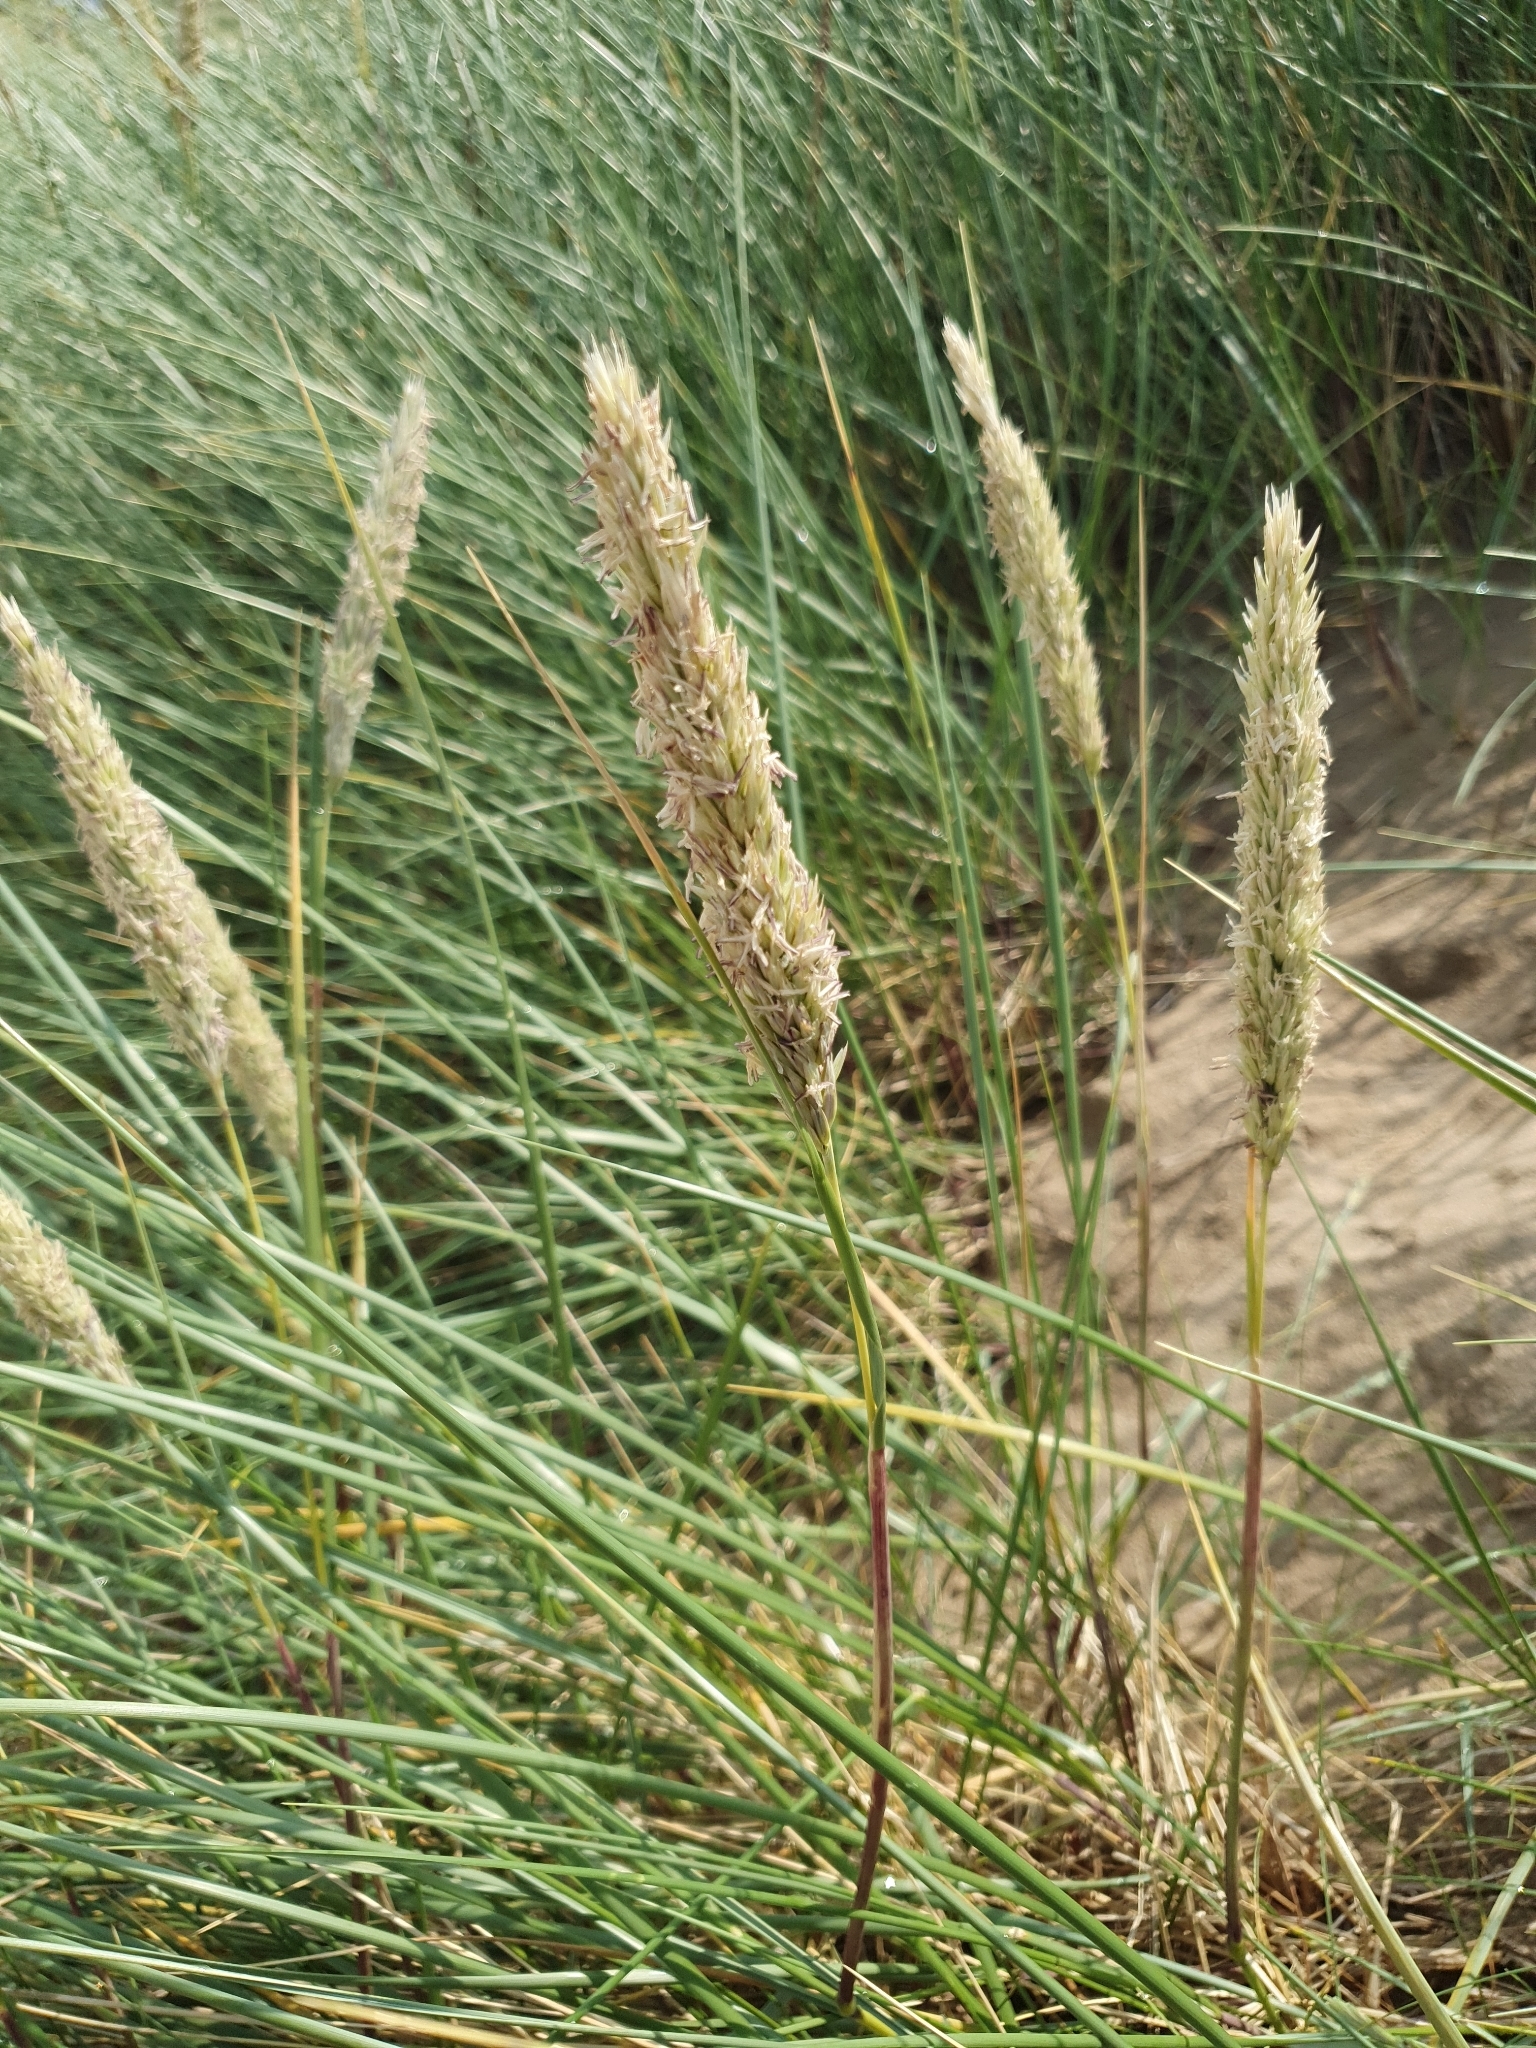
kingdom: Plantae
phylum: Tracheophyta
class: Liliopsida
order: Poales
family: Poaceae
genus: Calamagrostis
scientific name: Calamagrostis arenaria
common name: European beachgrass
